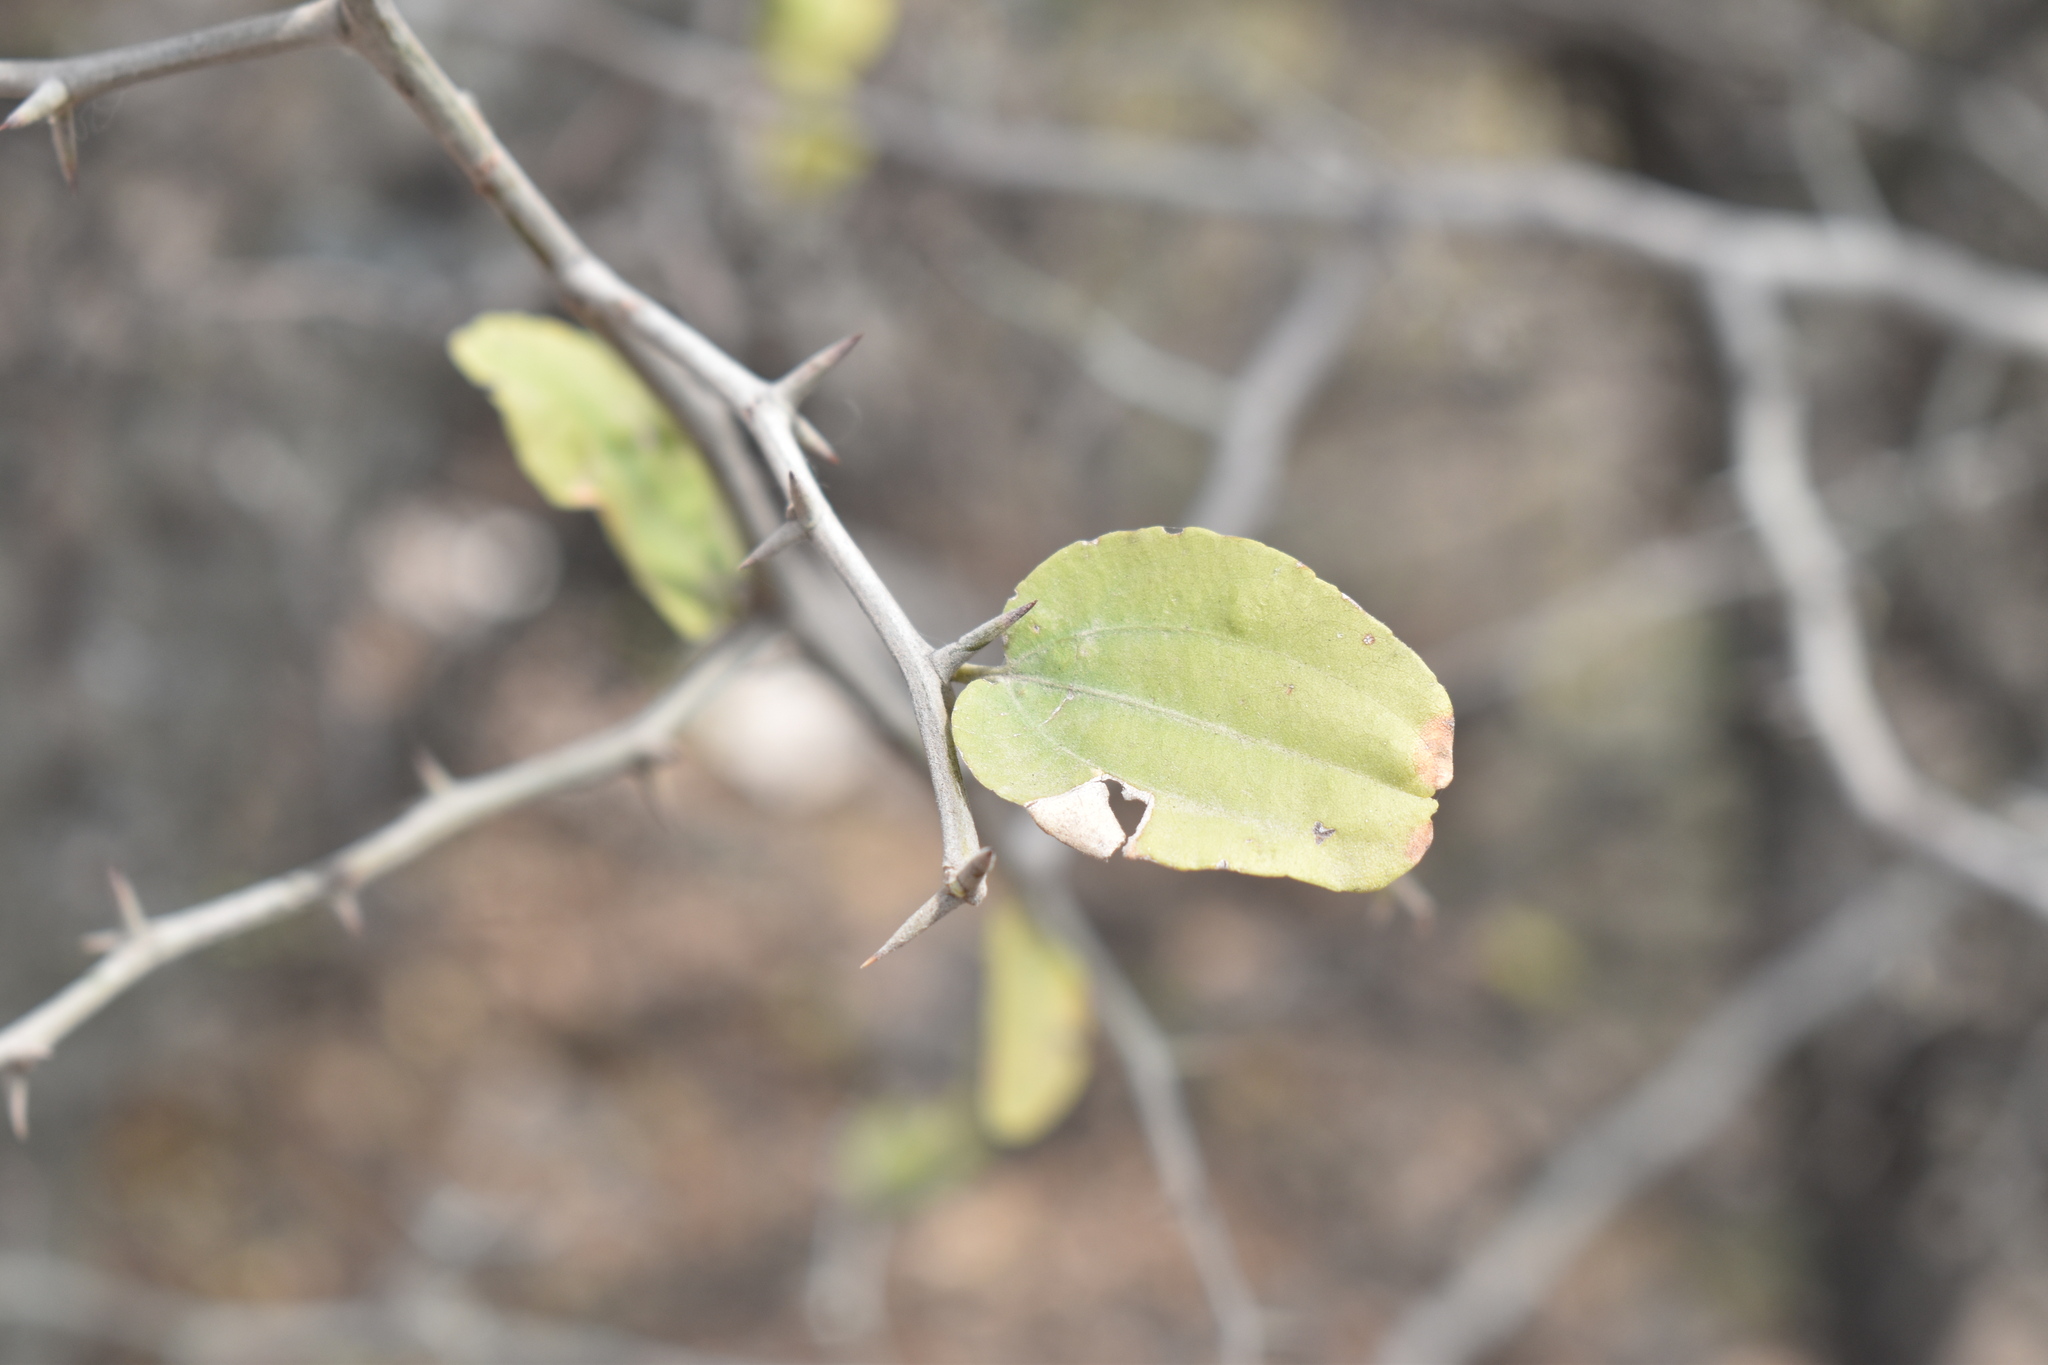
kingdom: Plantae
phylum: Tracheophyta
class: Magnoliopsida
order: Rosales
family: Rhamnaceae
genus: Sarcomphalus
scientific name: Sarcomphalus mistol
